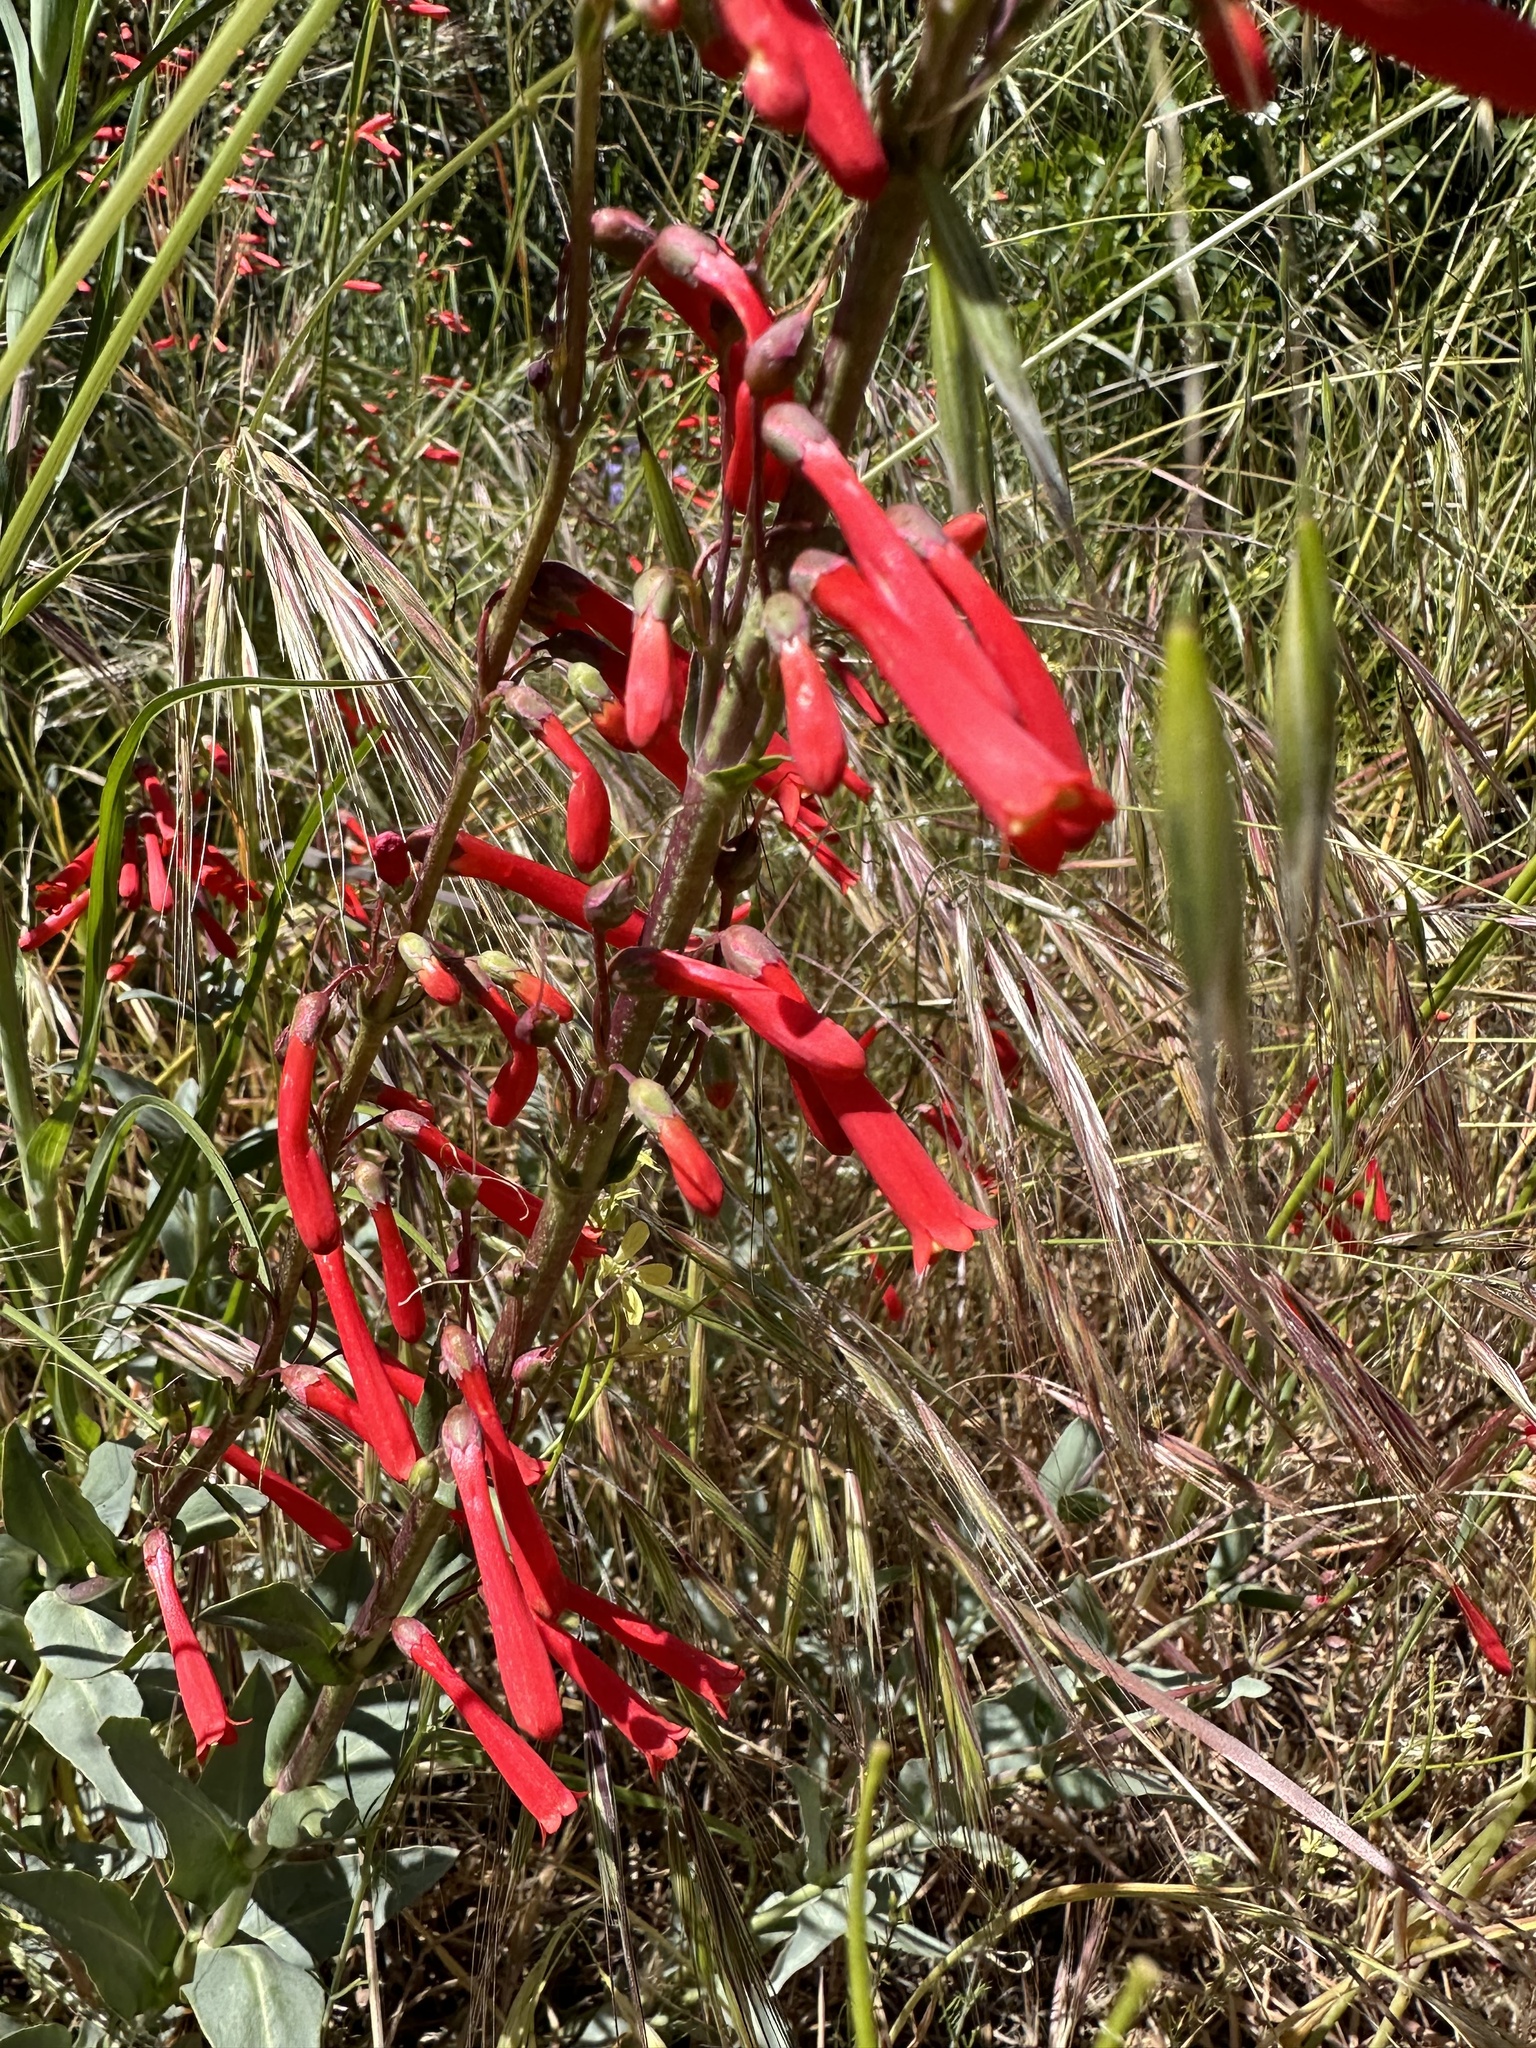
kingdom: Plantae
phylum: Tracheophyta
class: Magnoliopsida
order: Lamiales
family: Plantaginaceae
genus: Penstemon
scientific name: Penstemon centranthifolius
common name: Scarlet bugler
